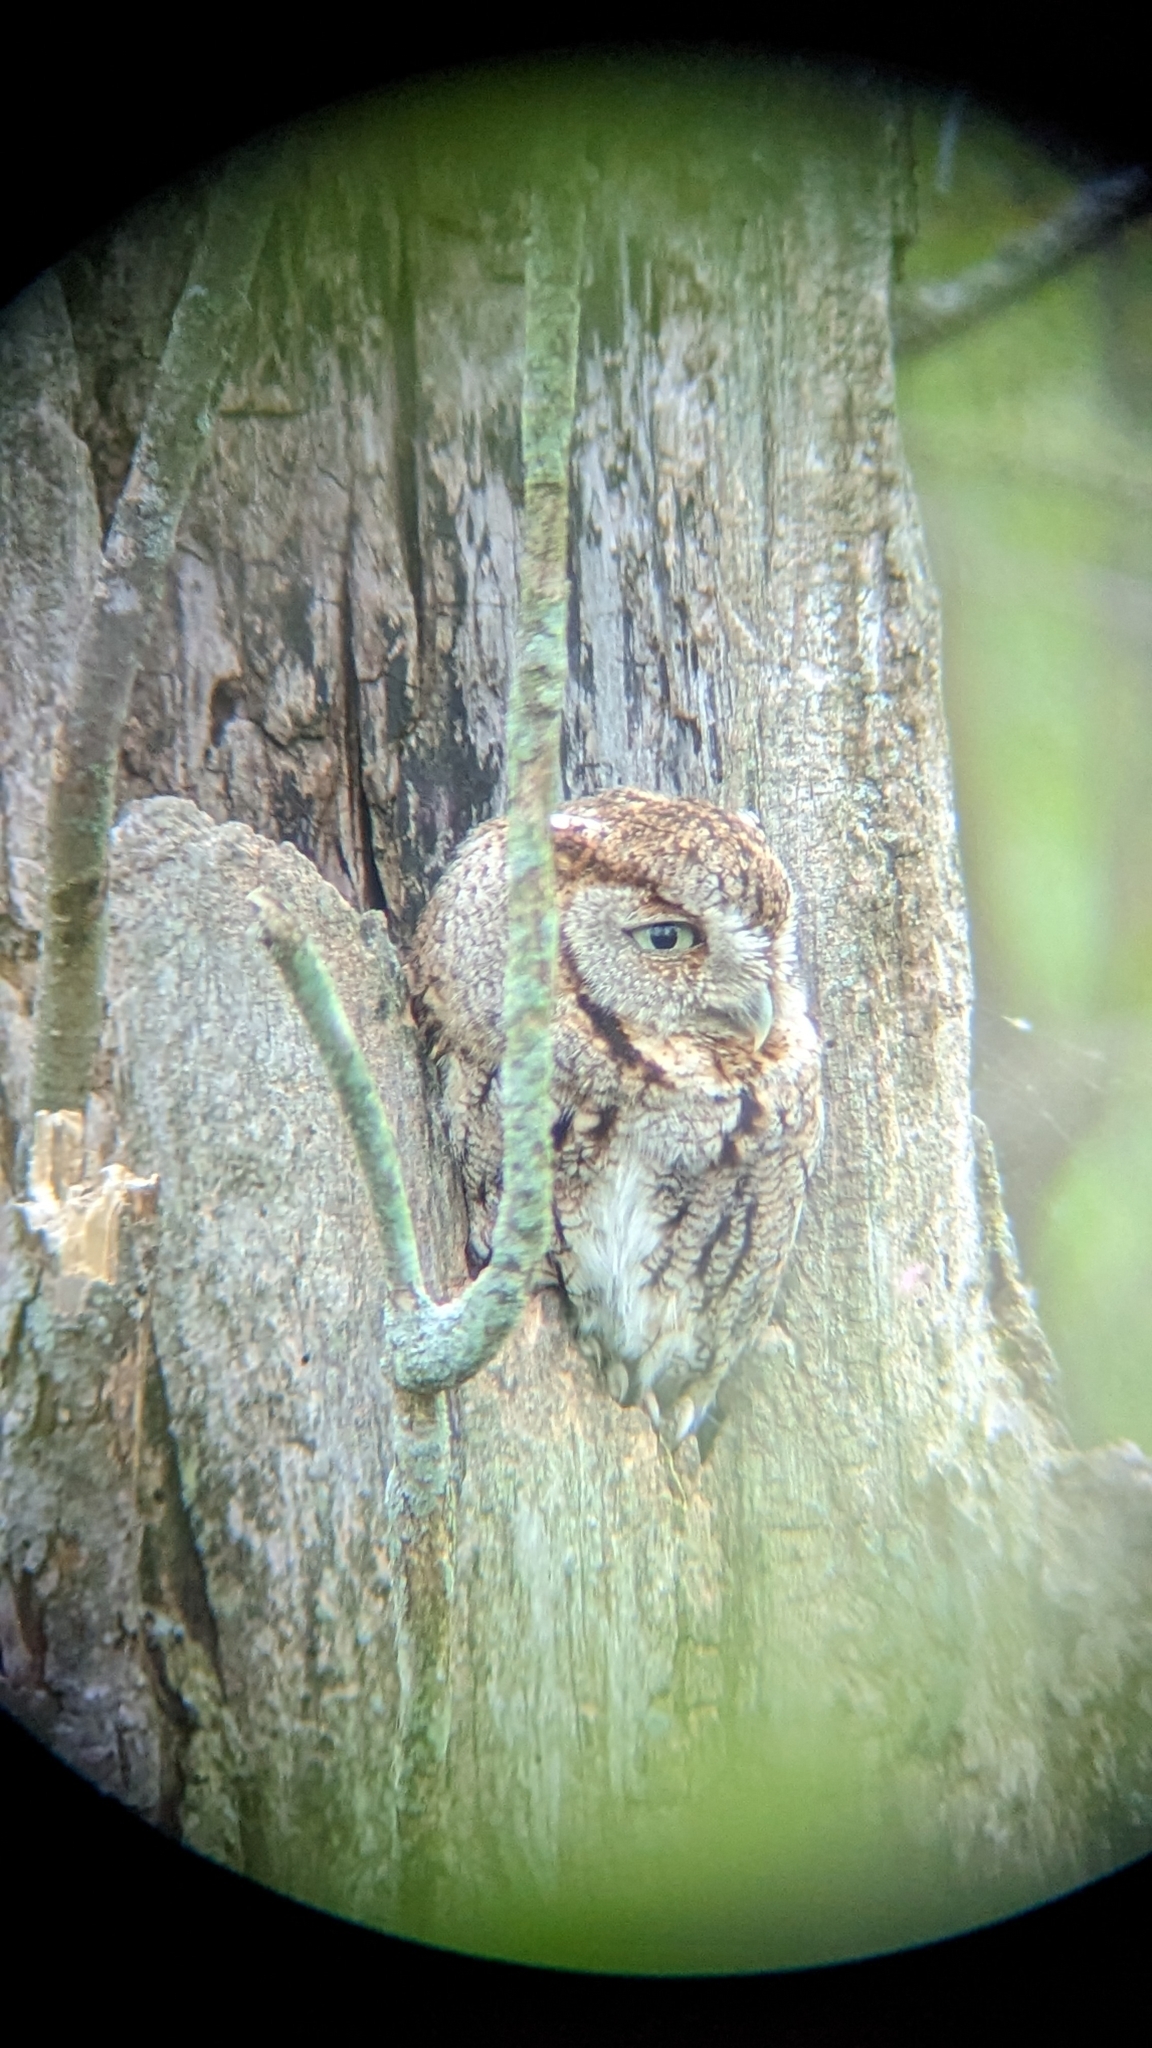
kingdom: Animalia
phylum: Chordata
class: Aves
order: Strigiformes
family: Strigidae
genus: Megascops
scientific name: Megascops asio
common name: Eastern screech-owl
